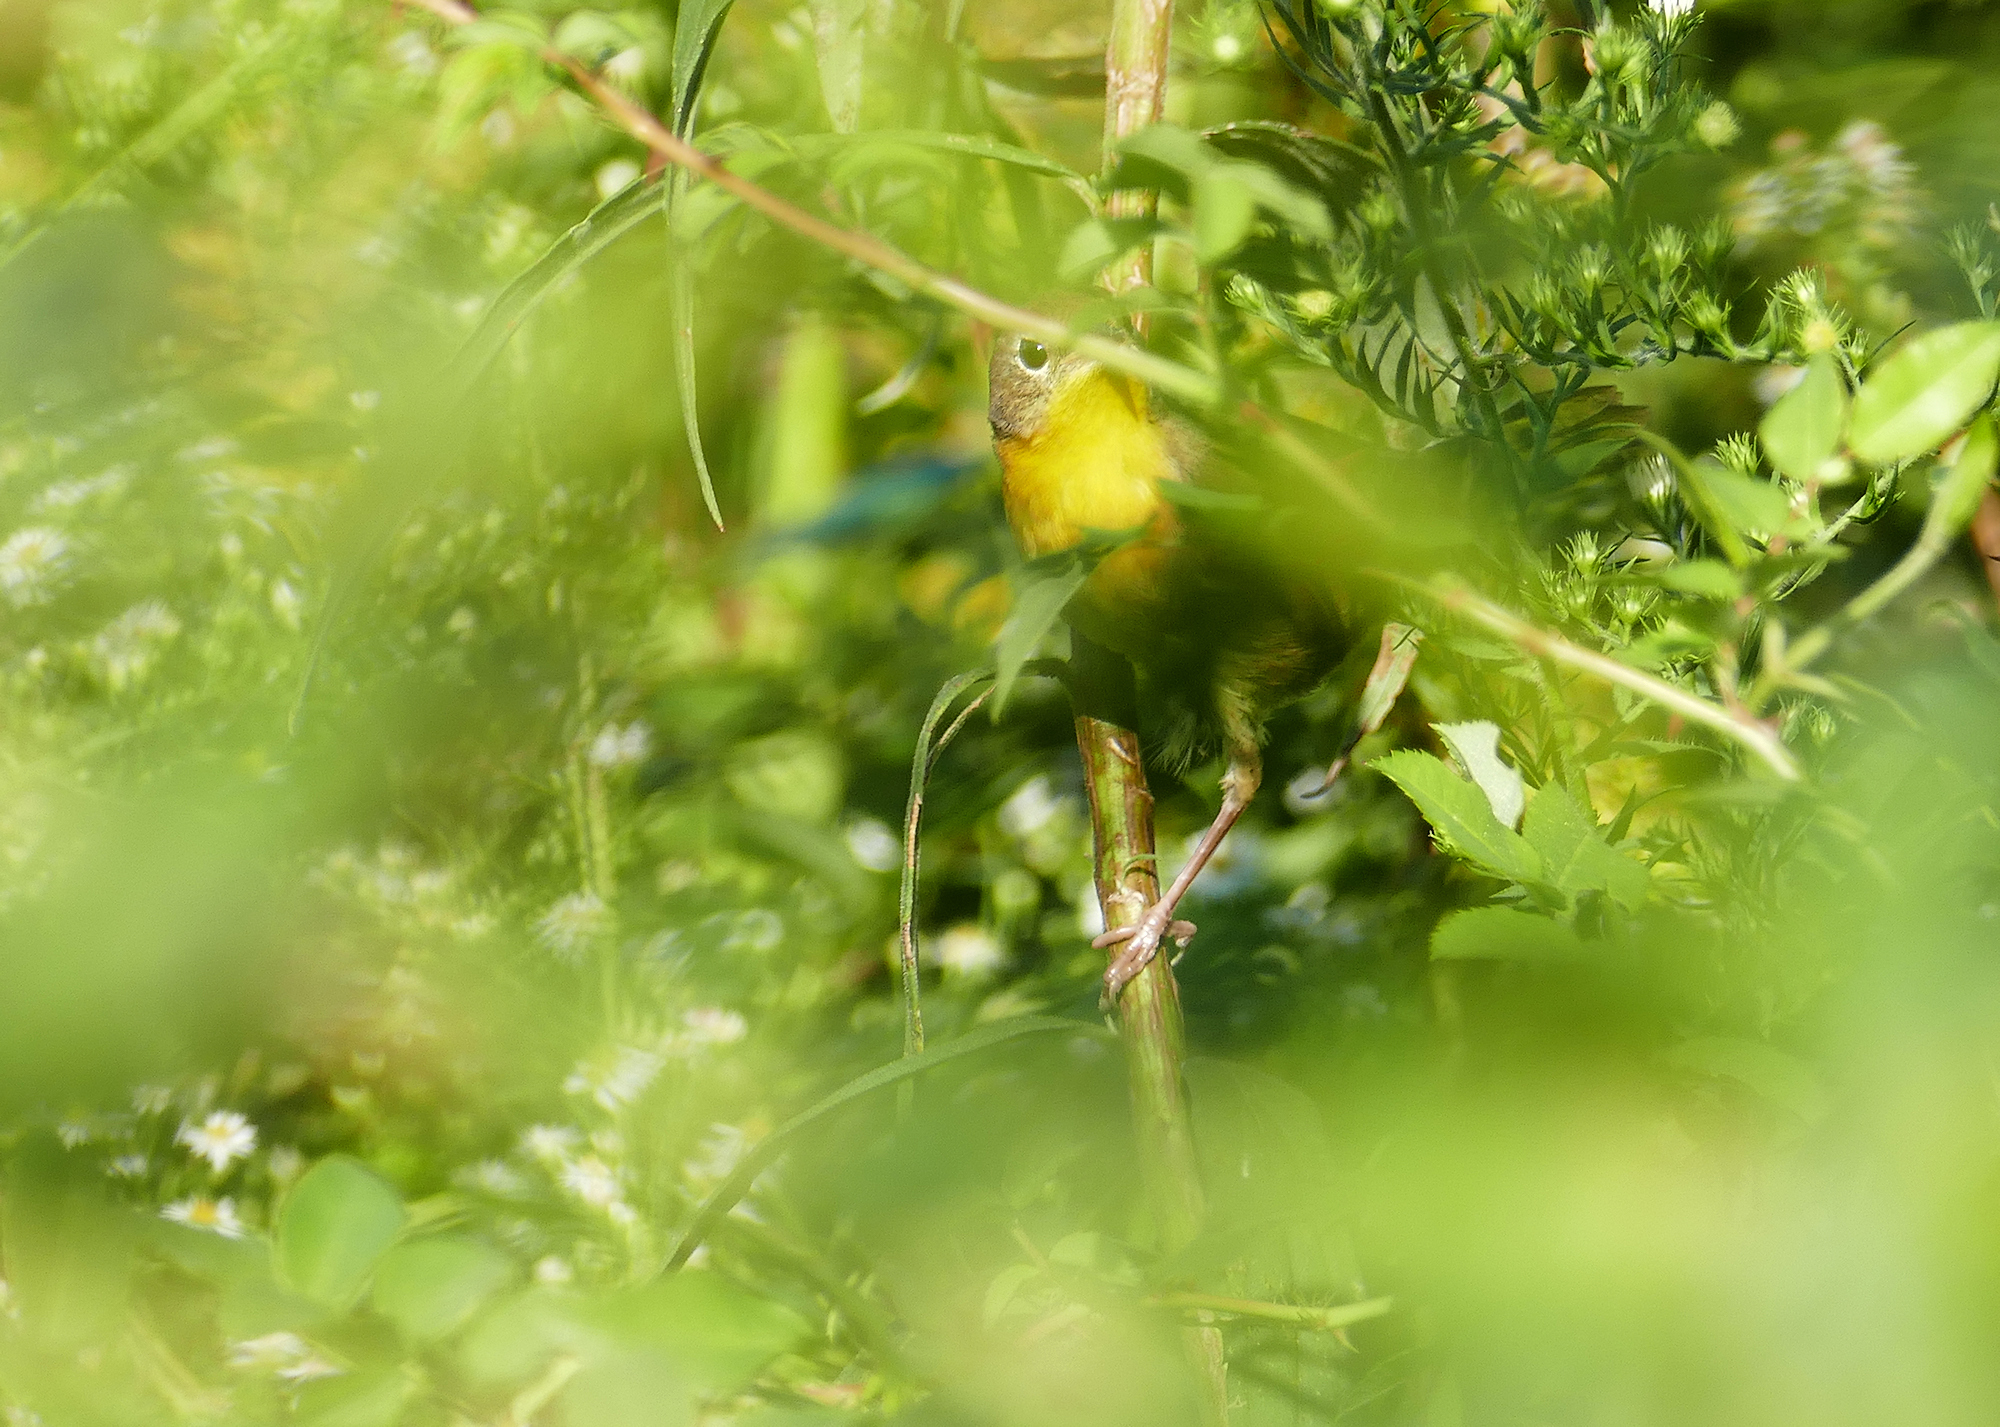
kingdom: Animalia
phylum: Chordata
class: Aves
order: Passeriformes
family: Parulidae
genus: Geothlypis
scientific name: Geothlypis trichas
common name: Common yellowthroat
